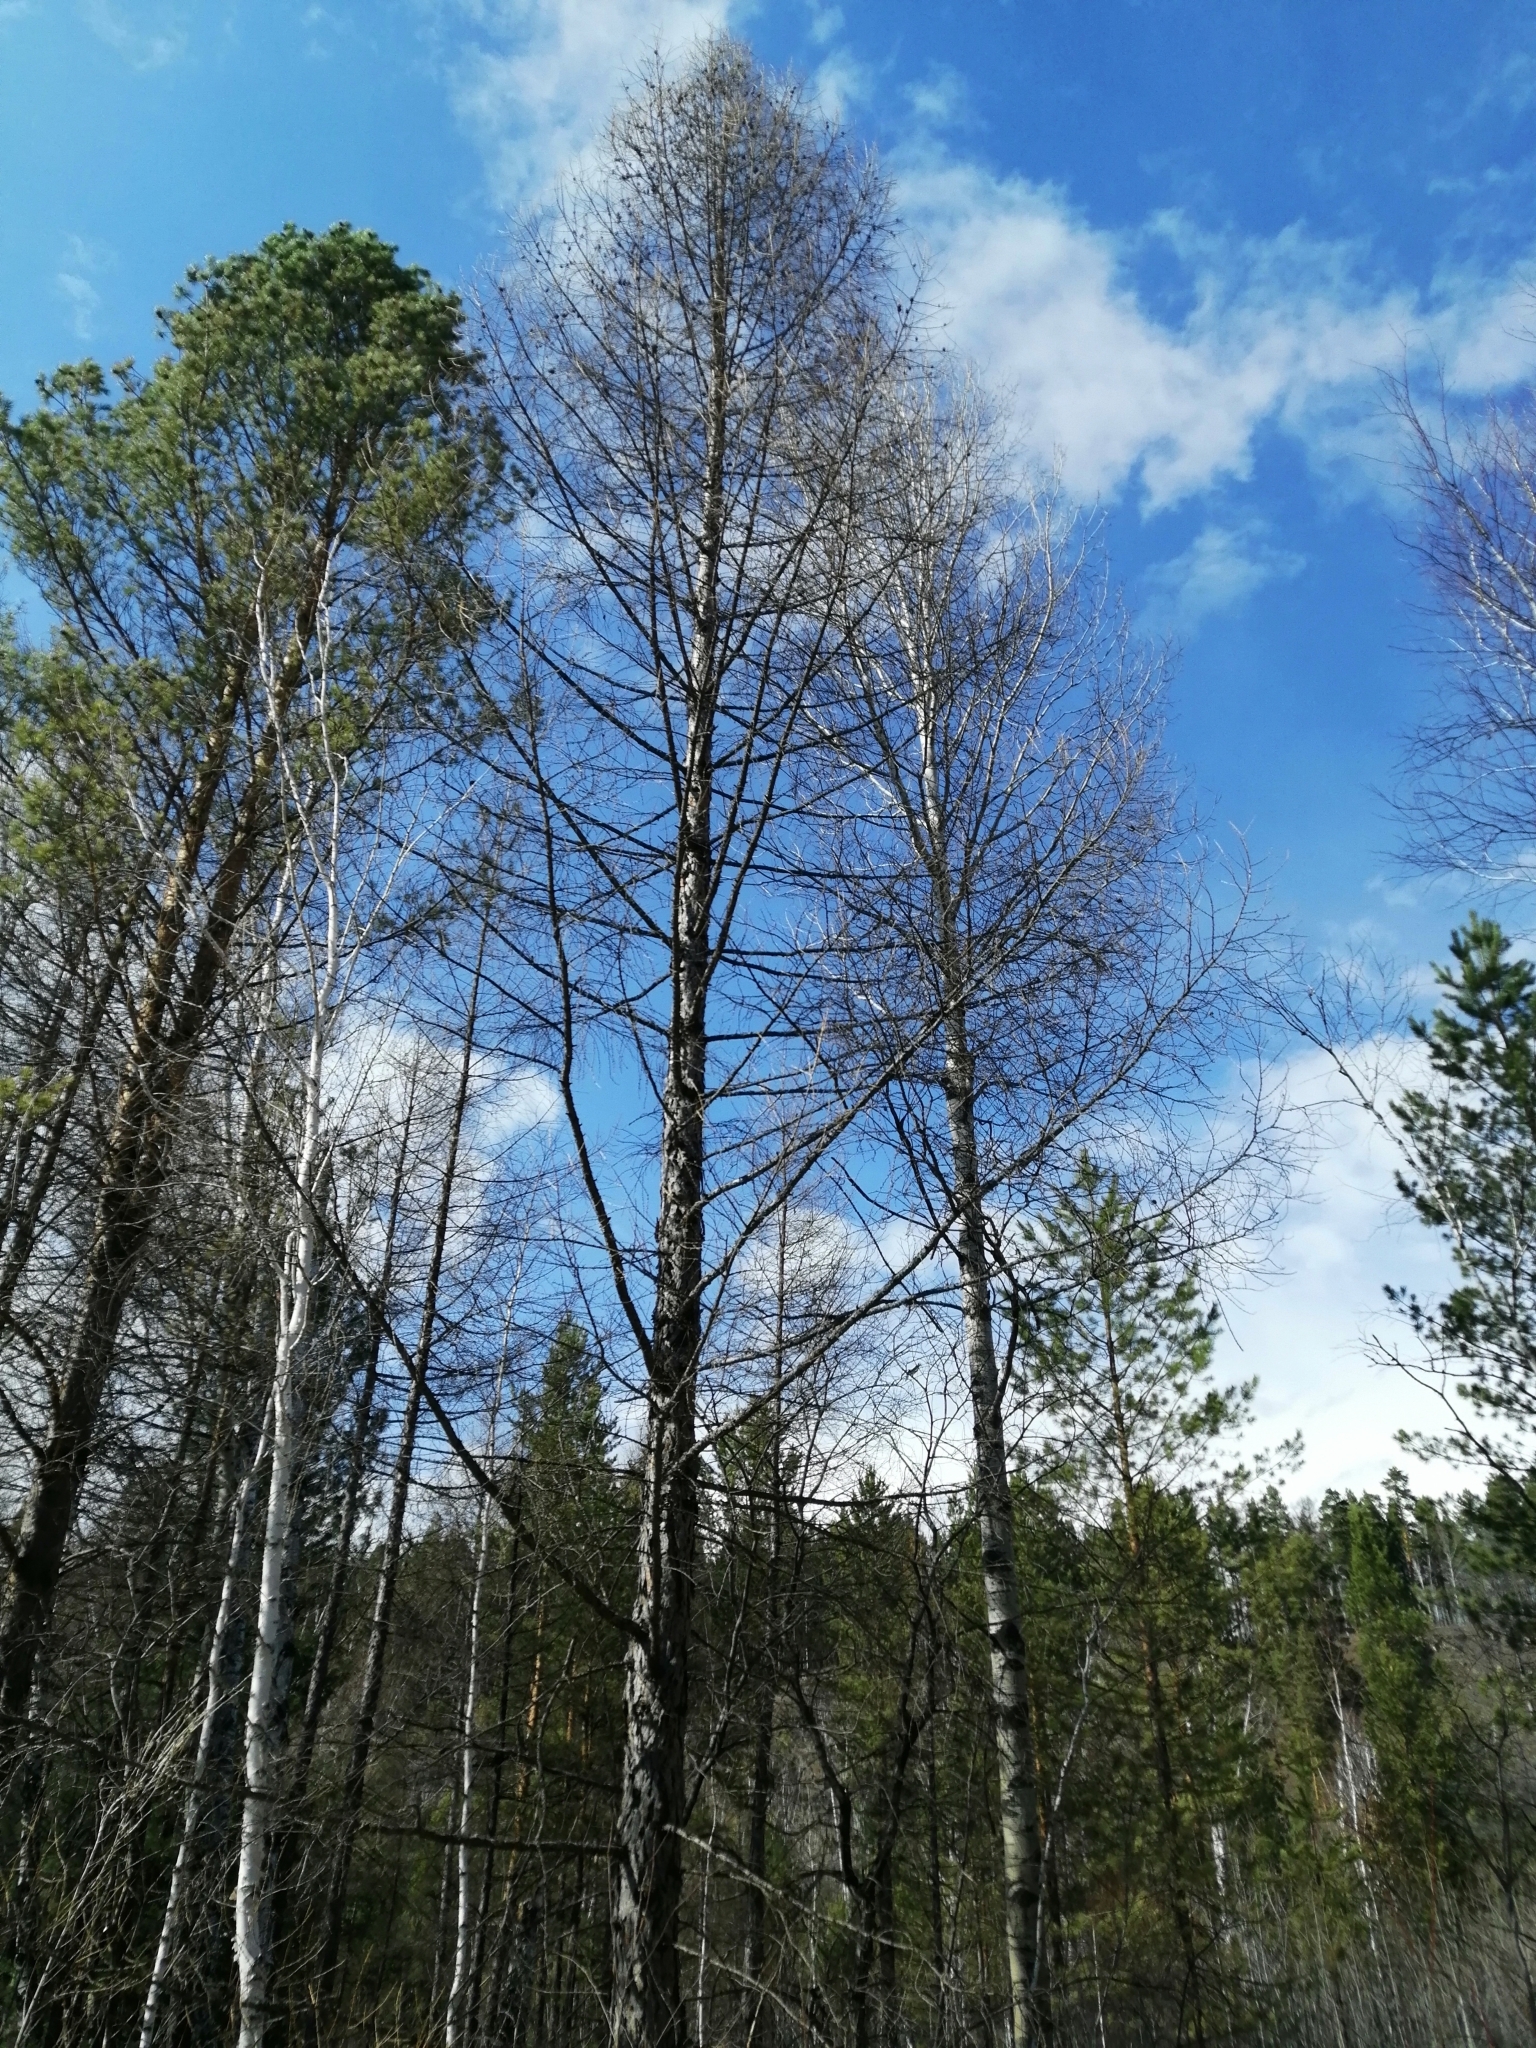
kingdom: Plantae
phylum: Tracheophyta
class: Pinopsida
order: Pinales
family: Pinaceae
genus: Larix
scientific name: Larix sibirica
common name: Siberian larch
